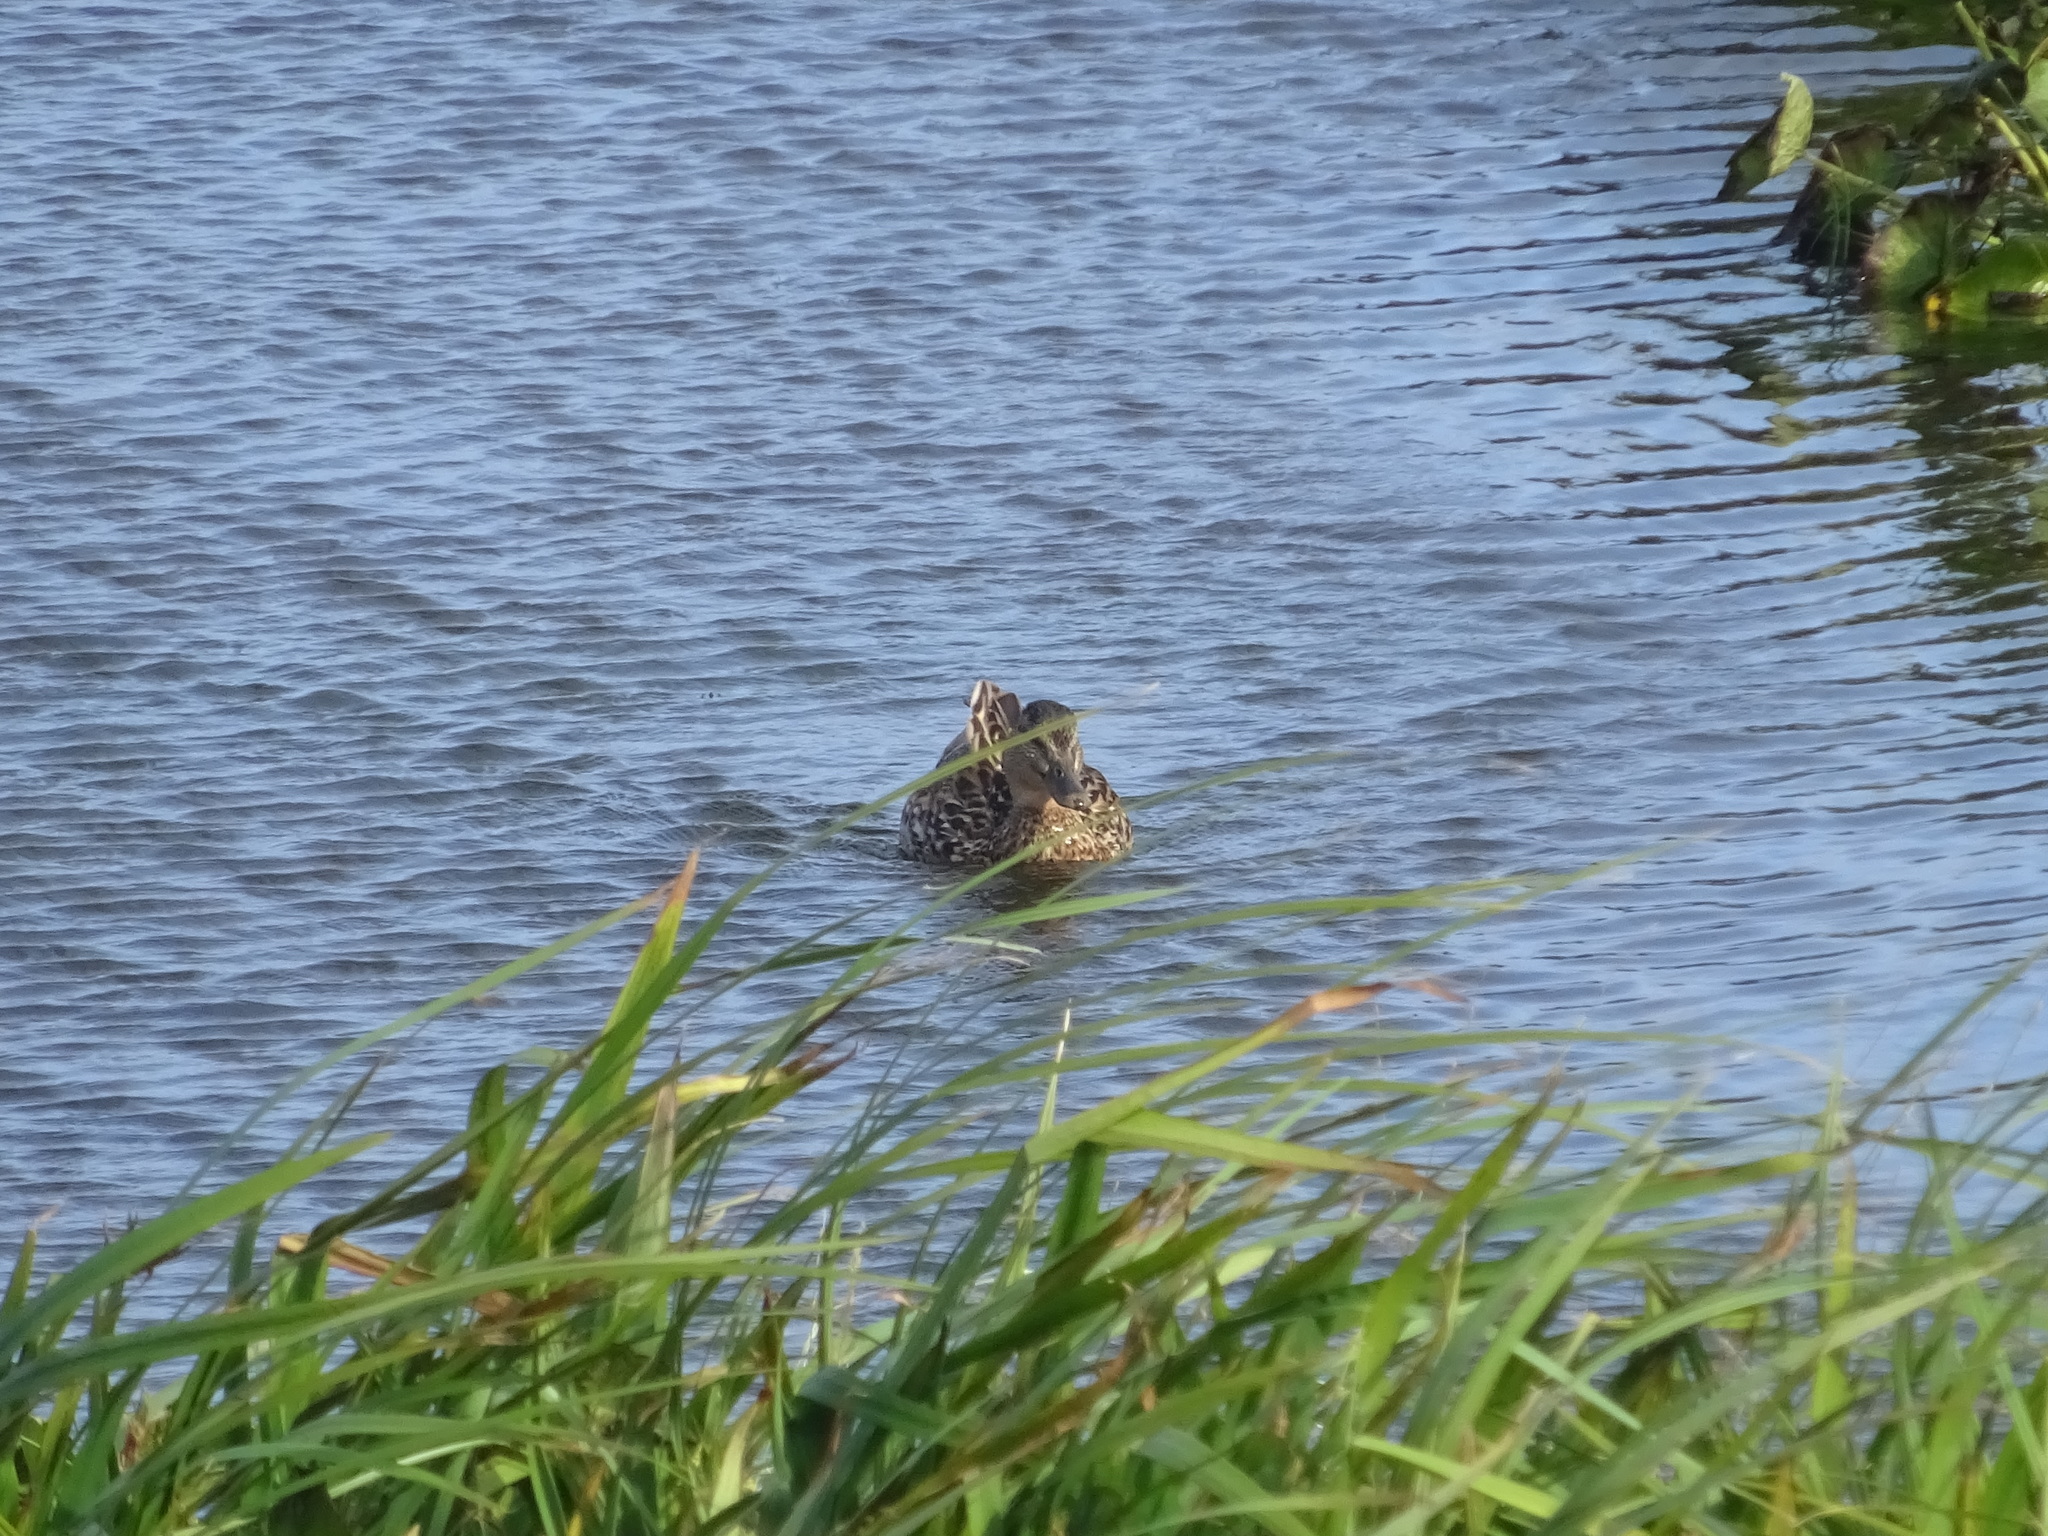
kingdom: Animalia
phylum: Chordata
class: Aves
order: Anseriformes
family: Anatidae
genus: Anas
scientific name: Anas platyrhynchos
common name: Mallard
